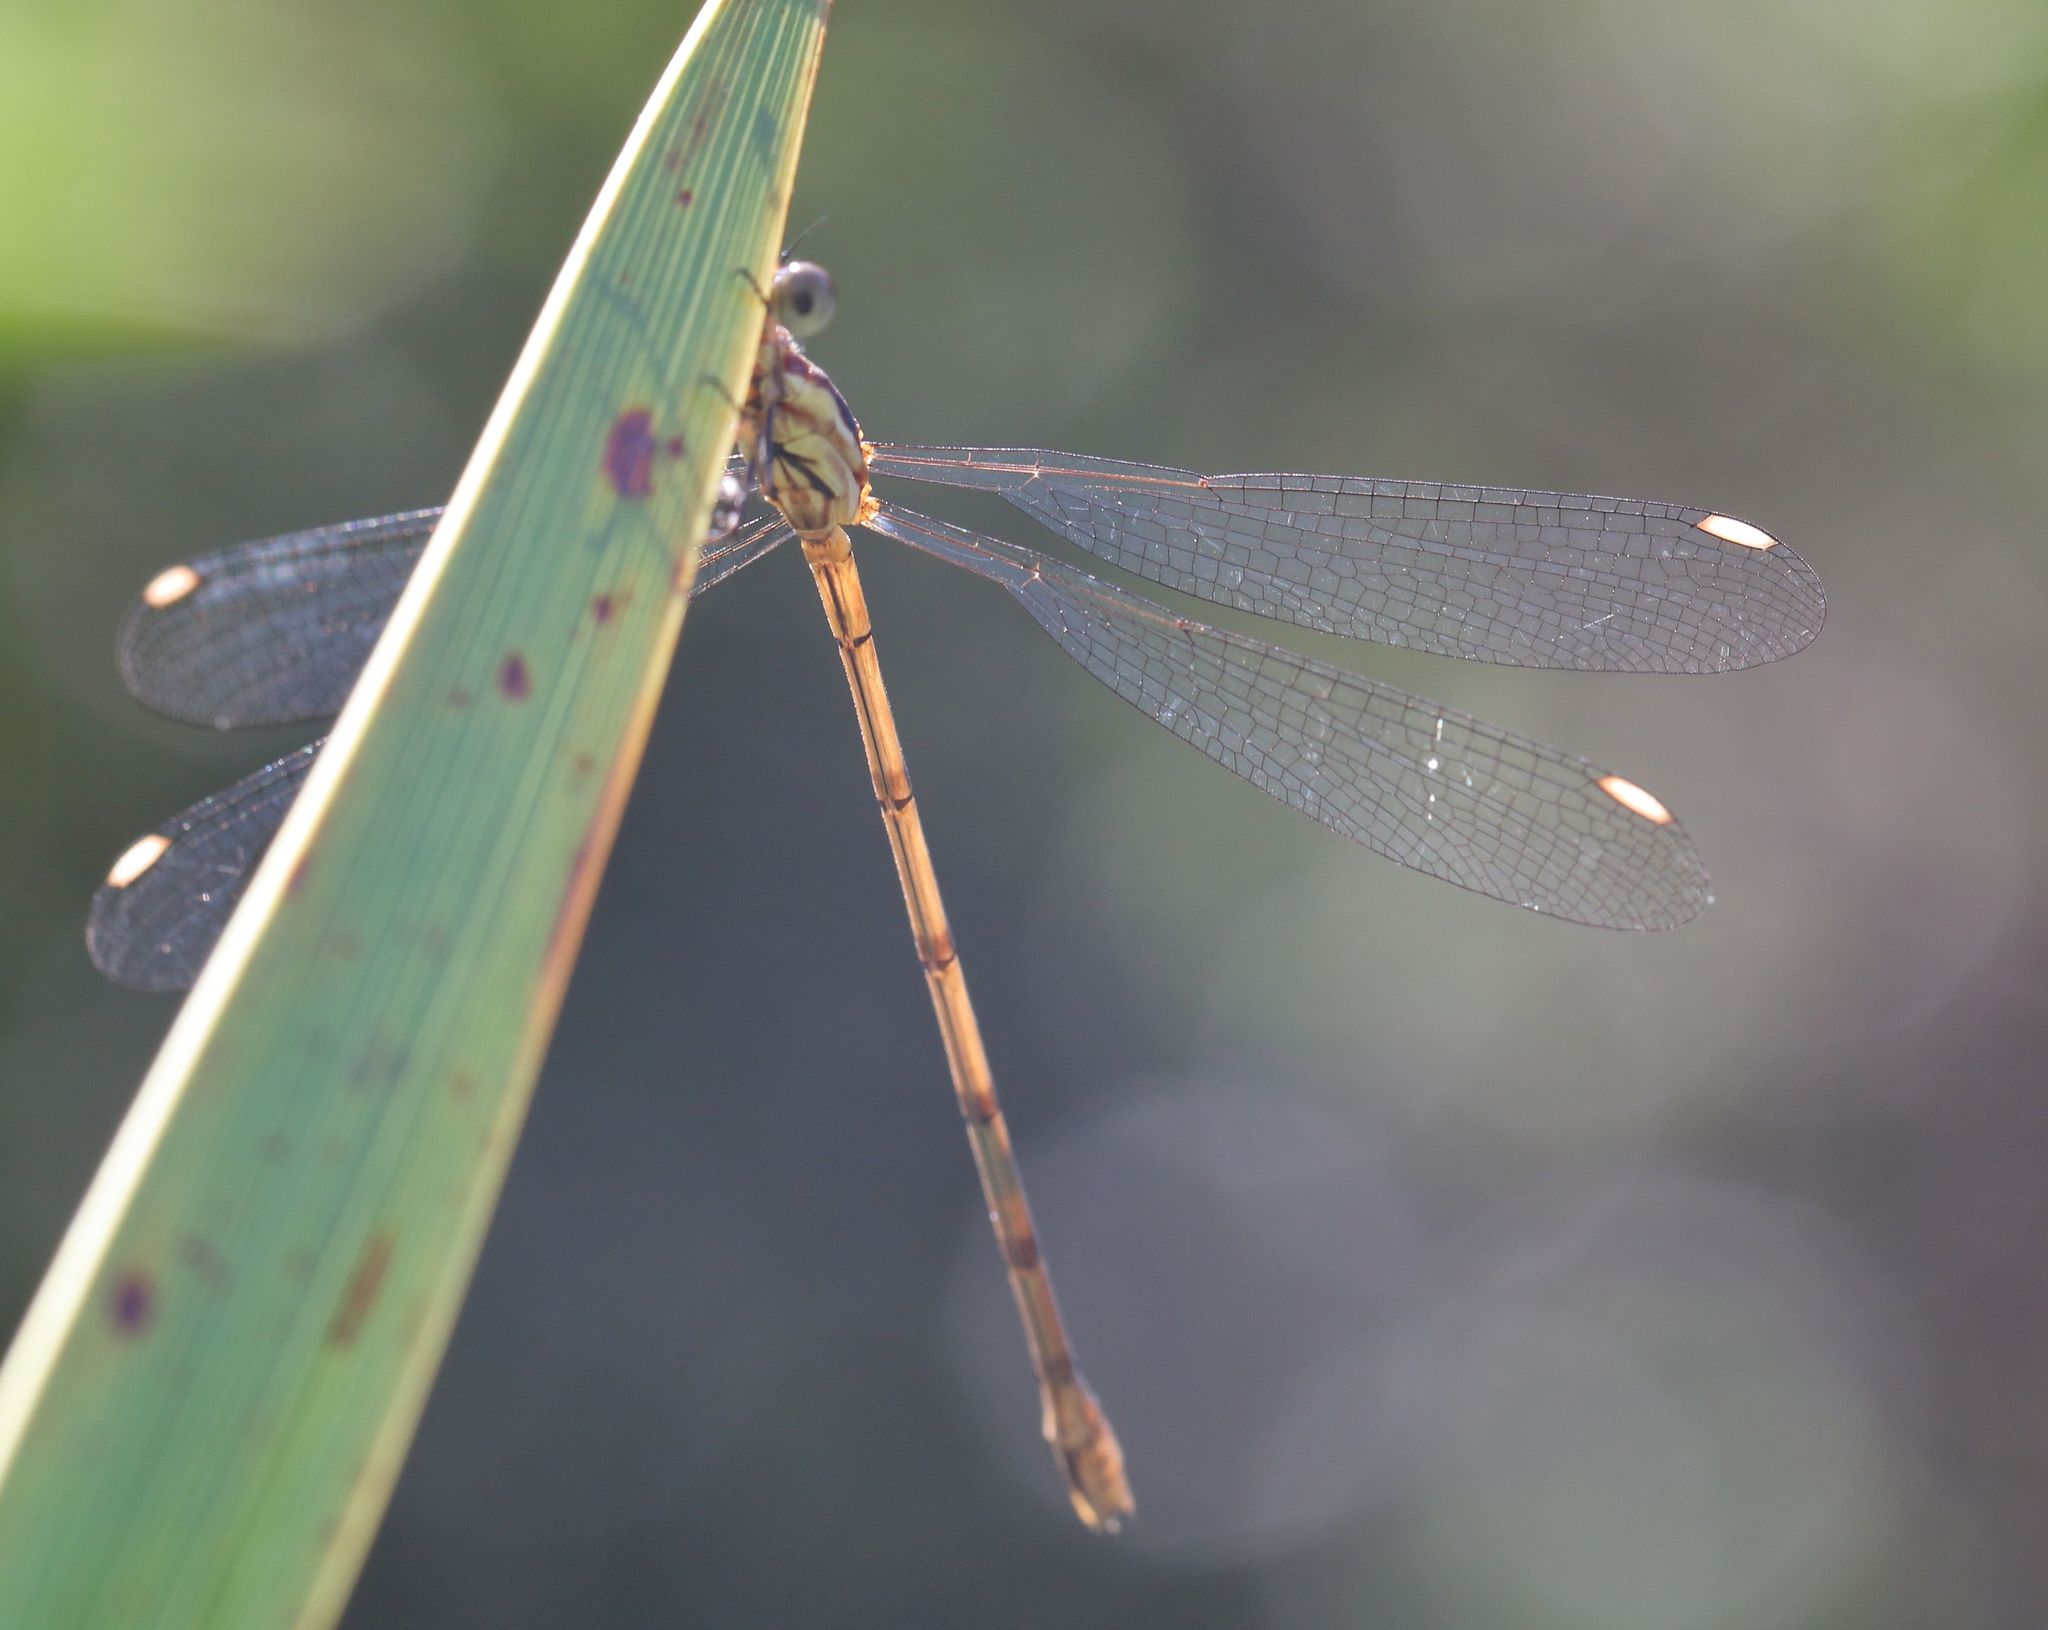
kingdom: Animalia
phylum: Arthropoda
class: Insecta
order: Odonata
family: Lestidae
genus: Lestes
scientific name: Lestes virgatus
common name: Smoky spreadwing
